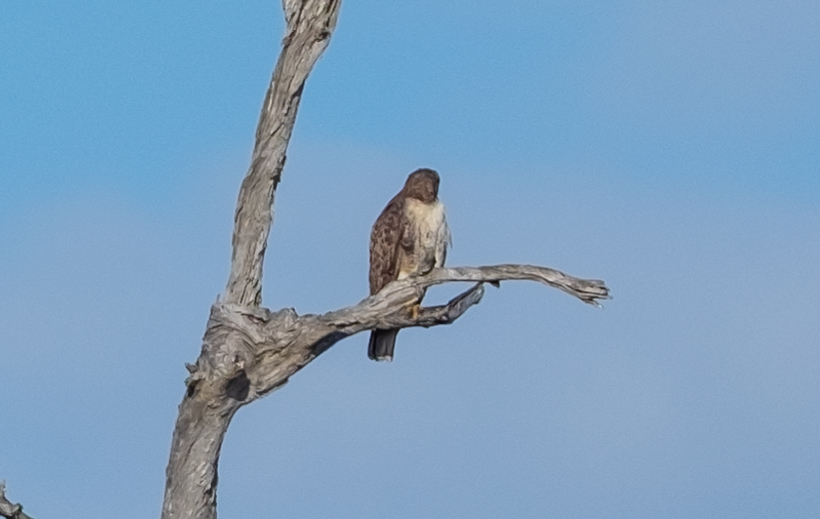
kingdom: Animalia
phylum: Chordata
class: Aves
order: Accipitriformes
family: Accipitridae
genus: Buteo
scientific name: Buteo jamaicensis
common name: Red-tailed hawk
